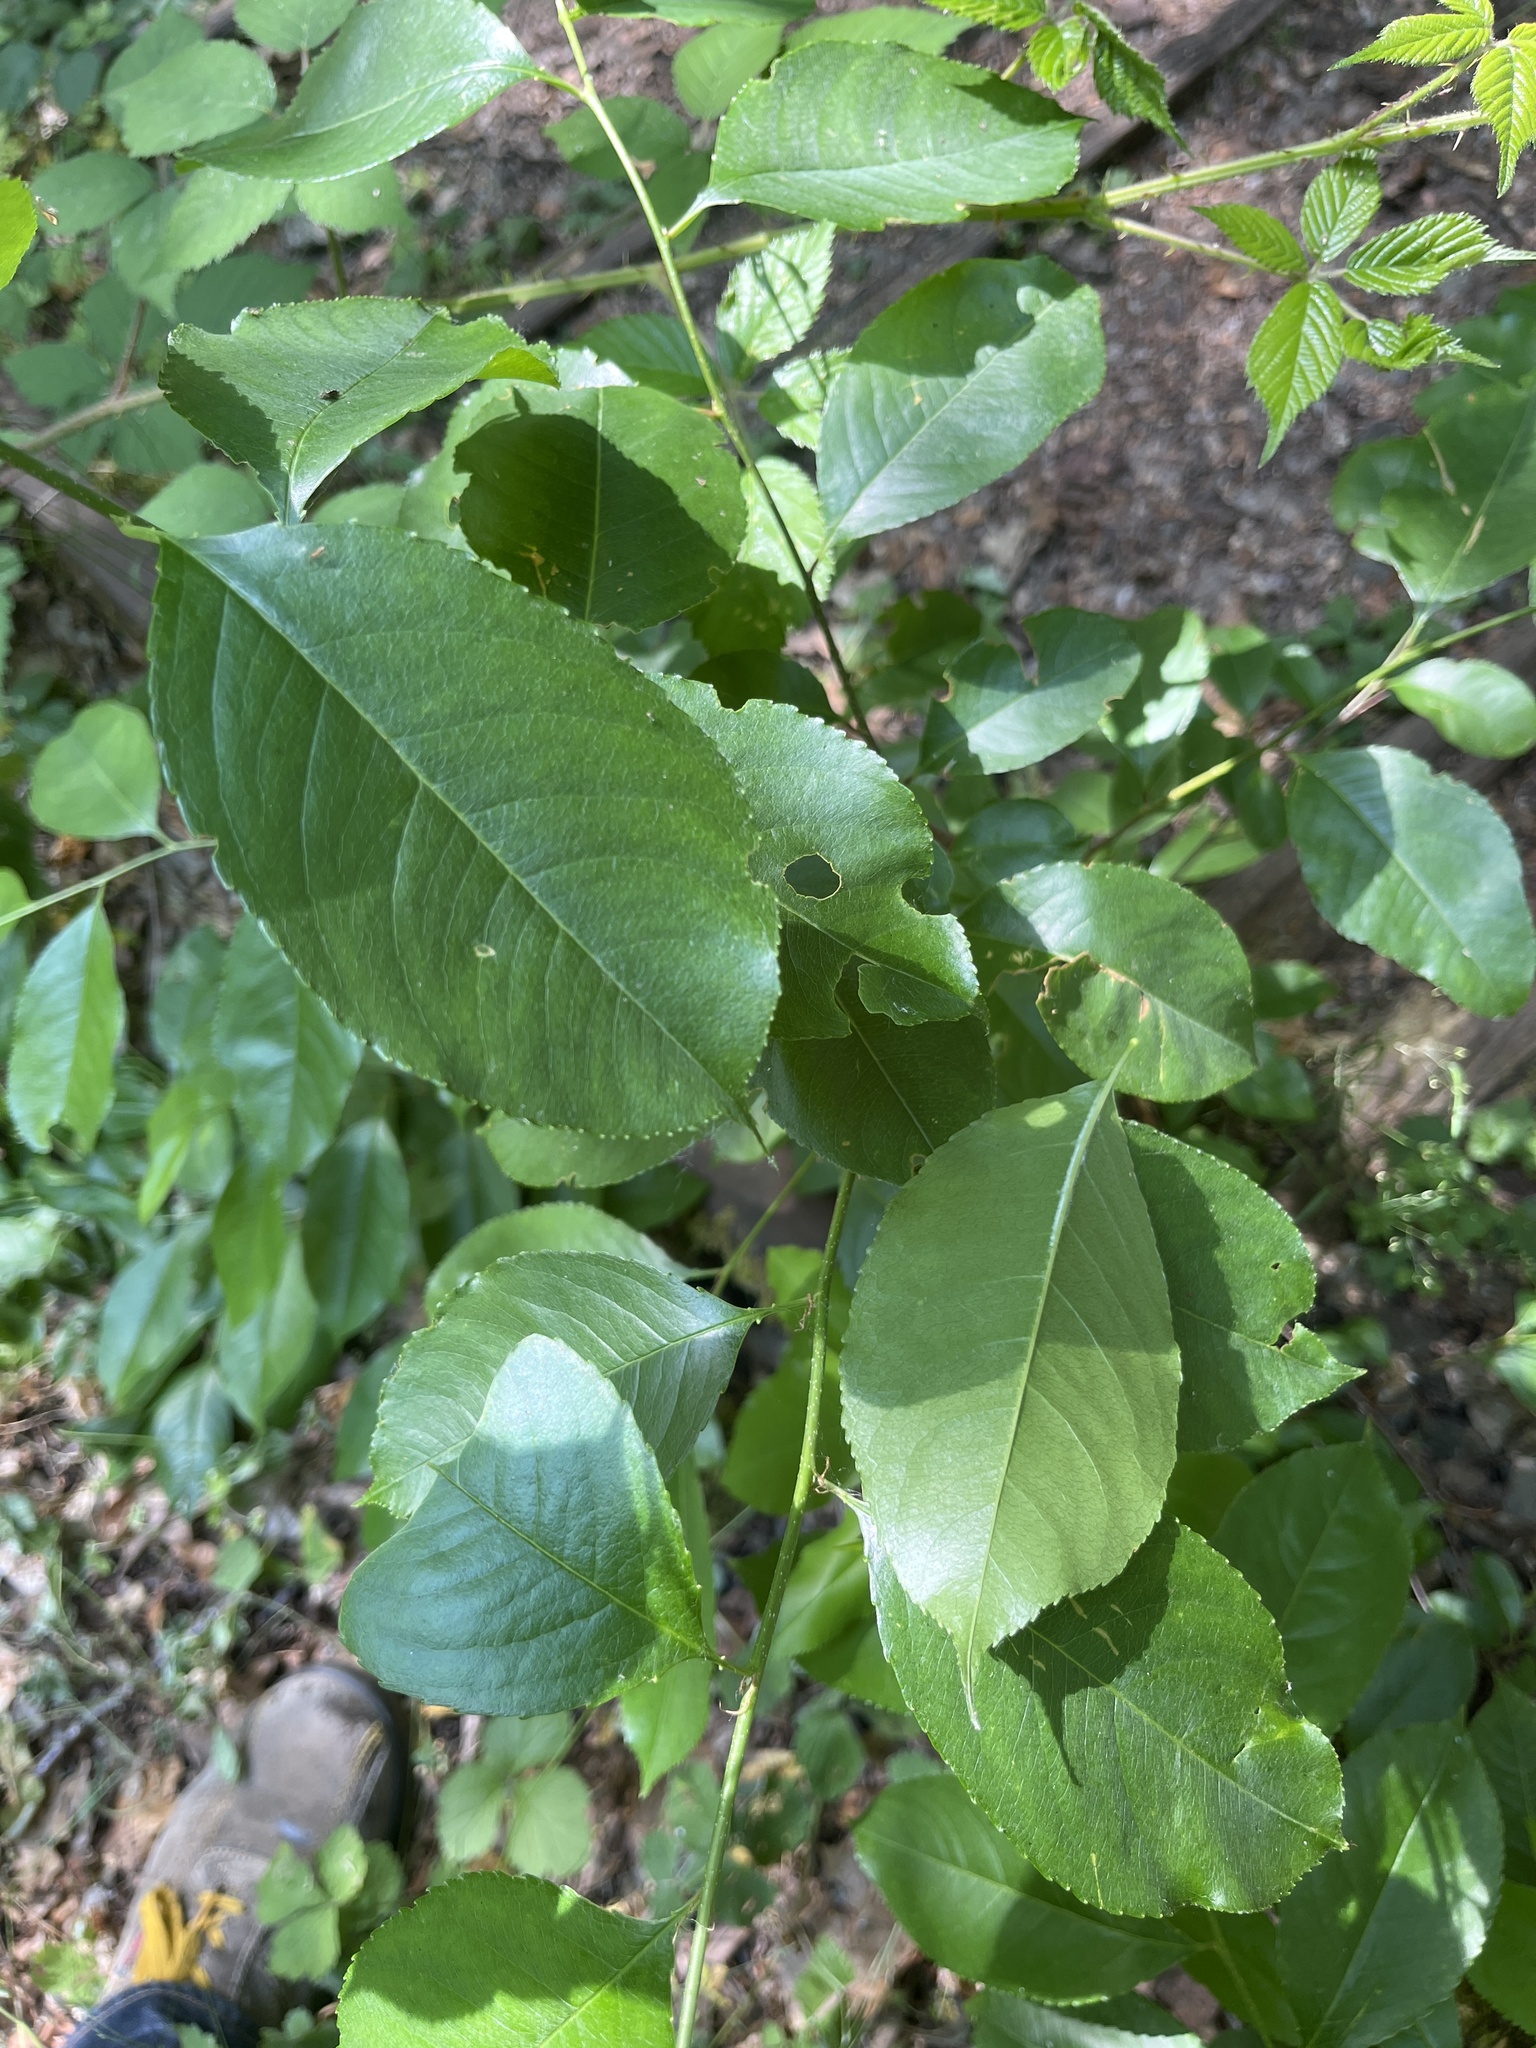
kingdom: Plantae
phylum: Tracheophyta
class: Magnoliopsida
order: Rosales
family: Rosaceae
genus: Prunus
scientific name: Prunus serotina
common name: Black cherry
